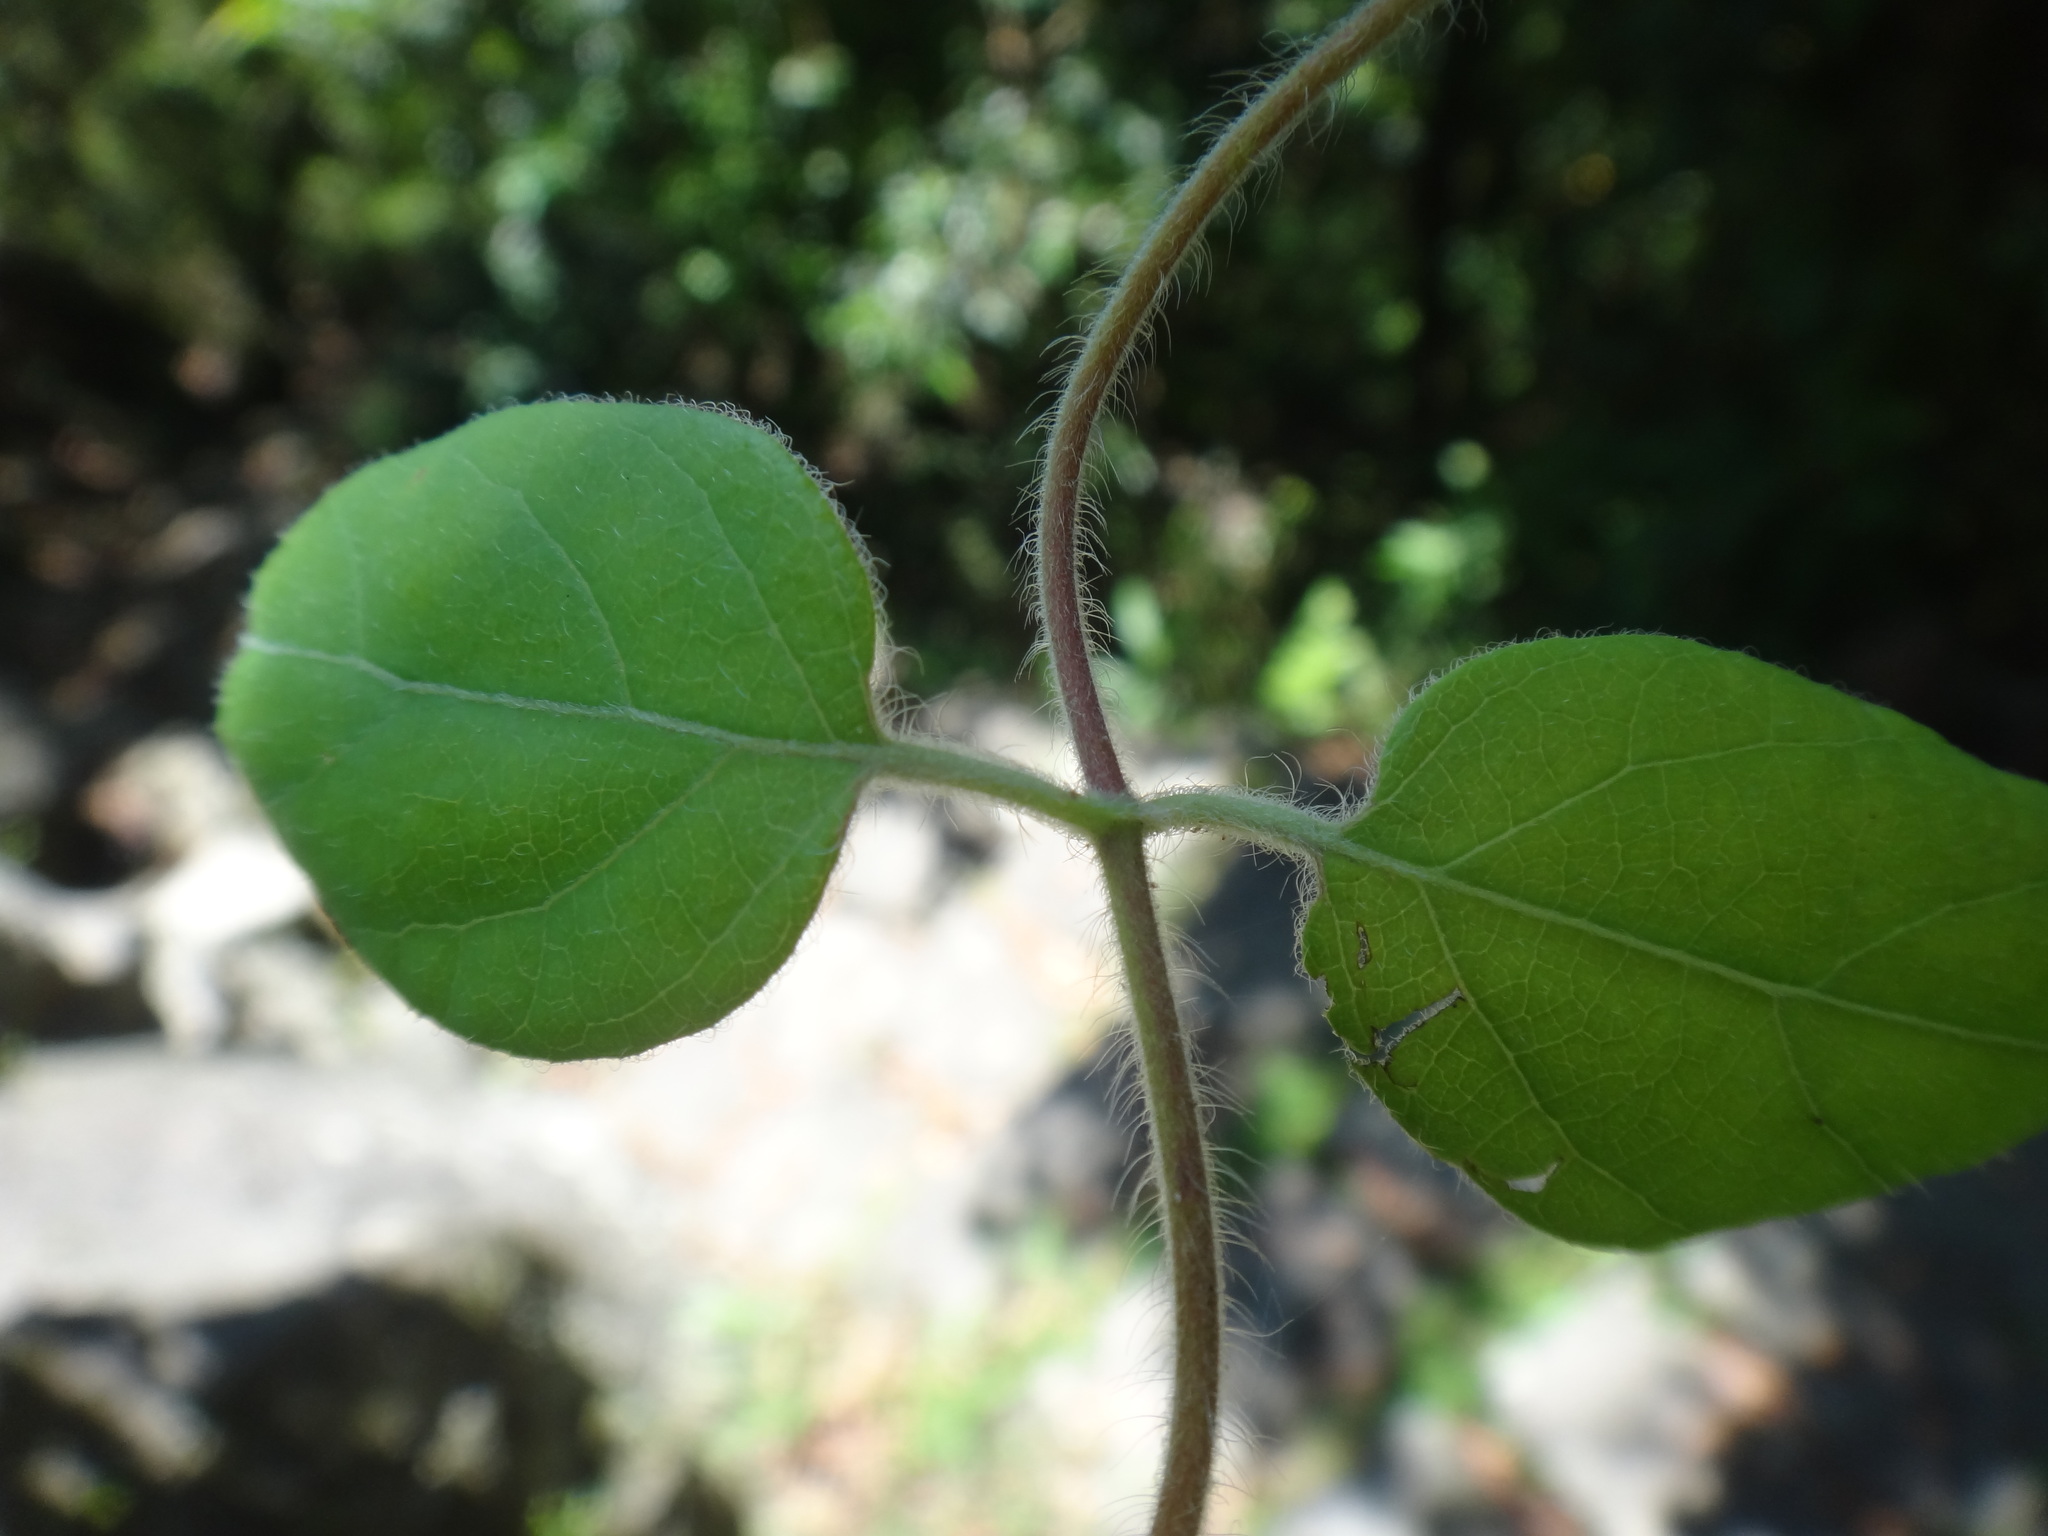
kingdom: Plantae
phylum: Tracheophyta
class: Magnoliopsida
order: Dipsacales
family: Caprifoliaceae
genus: Lonicera
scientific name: Lonicera hypoglauca
